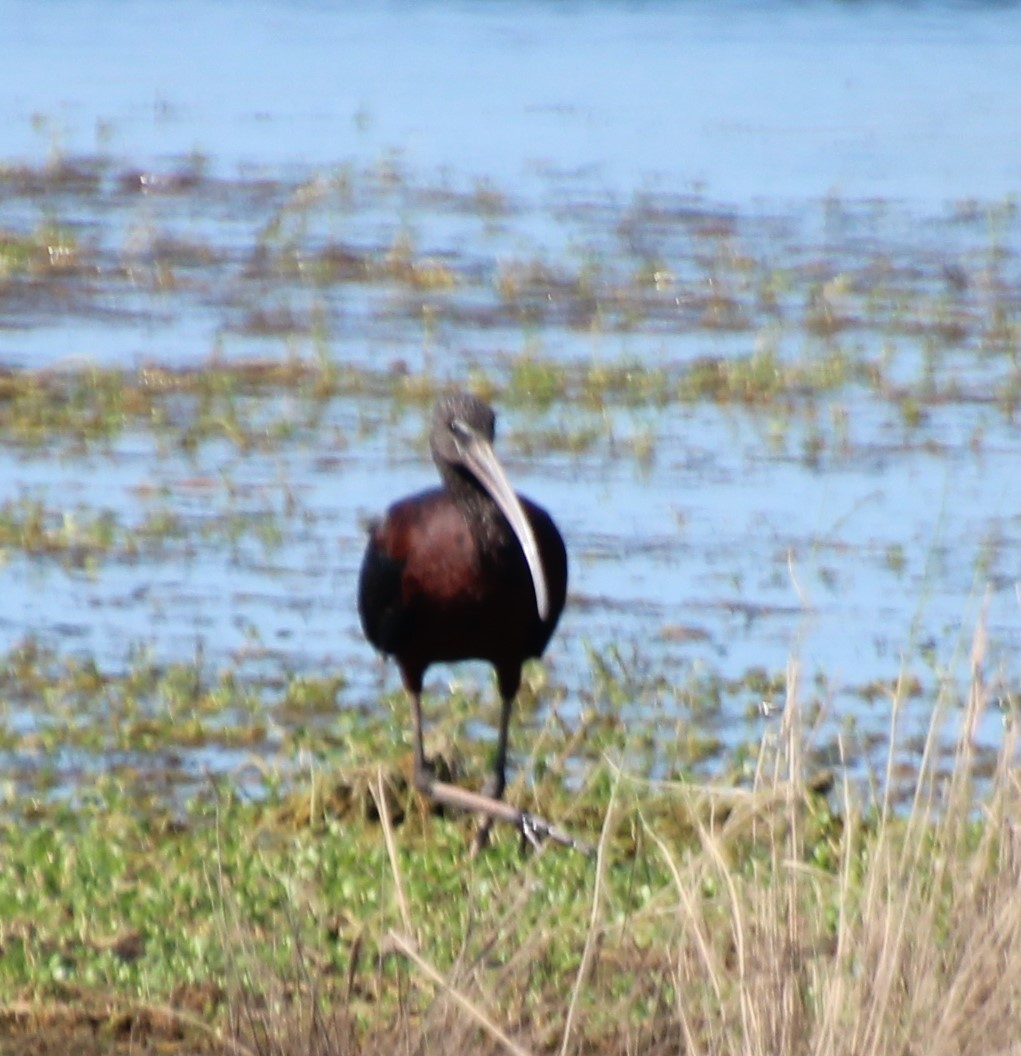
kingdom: Animalia
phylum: Chordata
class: Aves
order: Pelecaniformes
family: Threskiornithidae
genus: Plegadis
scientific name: Plegadis falcinellus
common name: Glossy ibis
